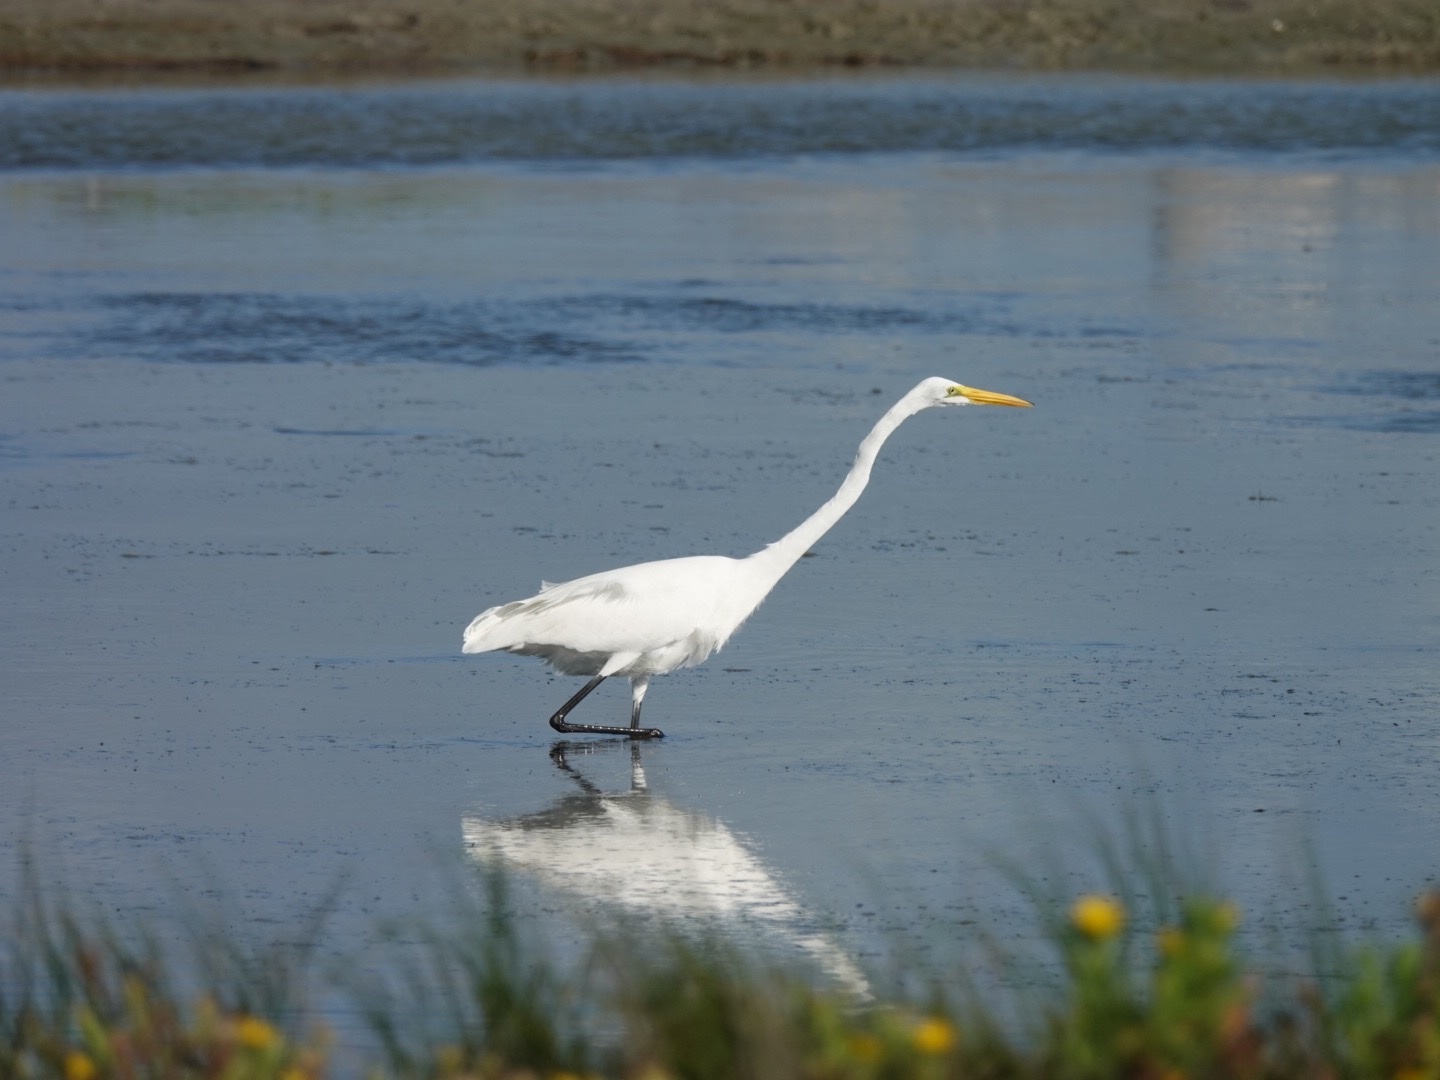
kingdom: Animalia
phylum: Chordata
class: Aves
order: Pelecaniformes
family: Ardeidae
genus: Ardea
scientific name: Ardea alba
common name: Great egret
